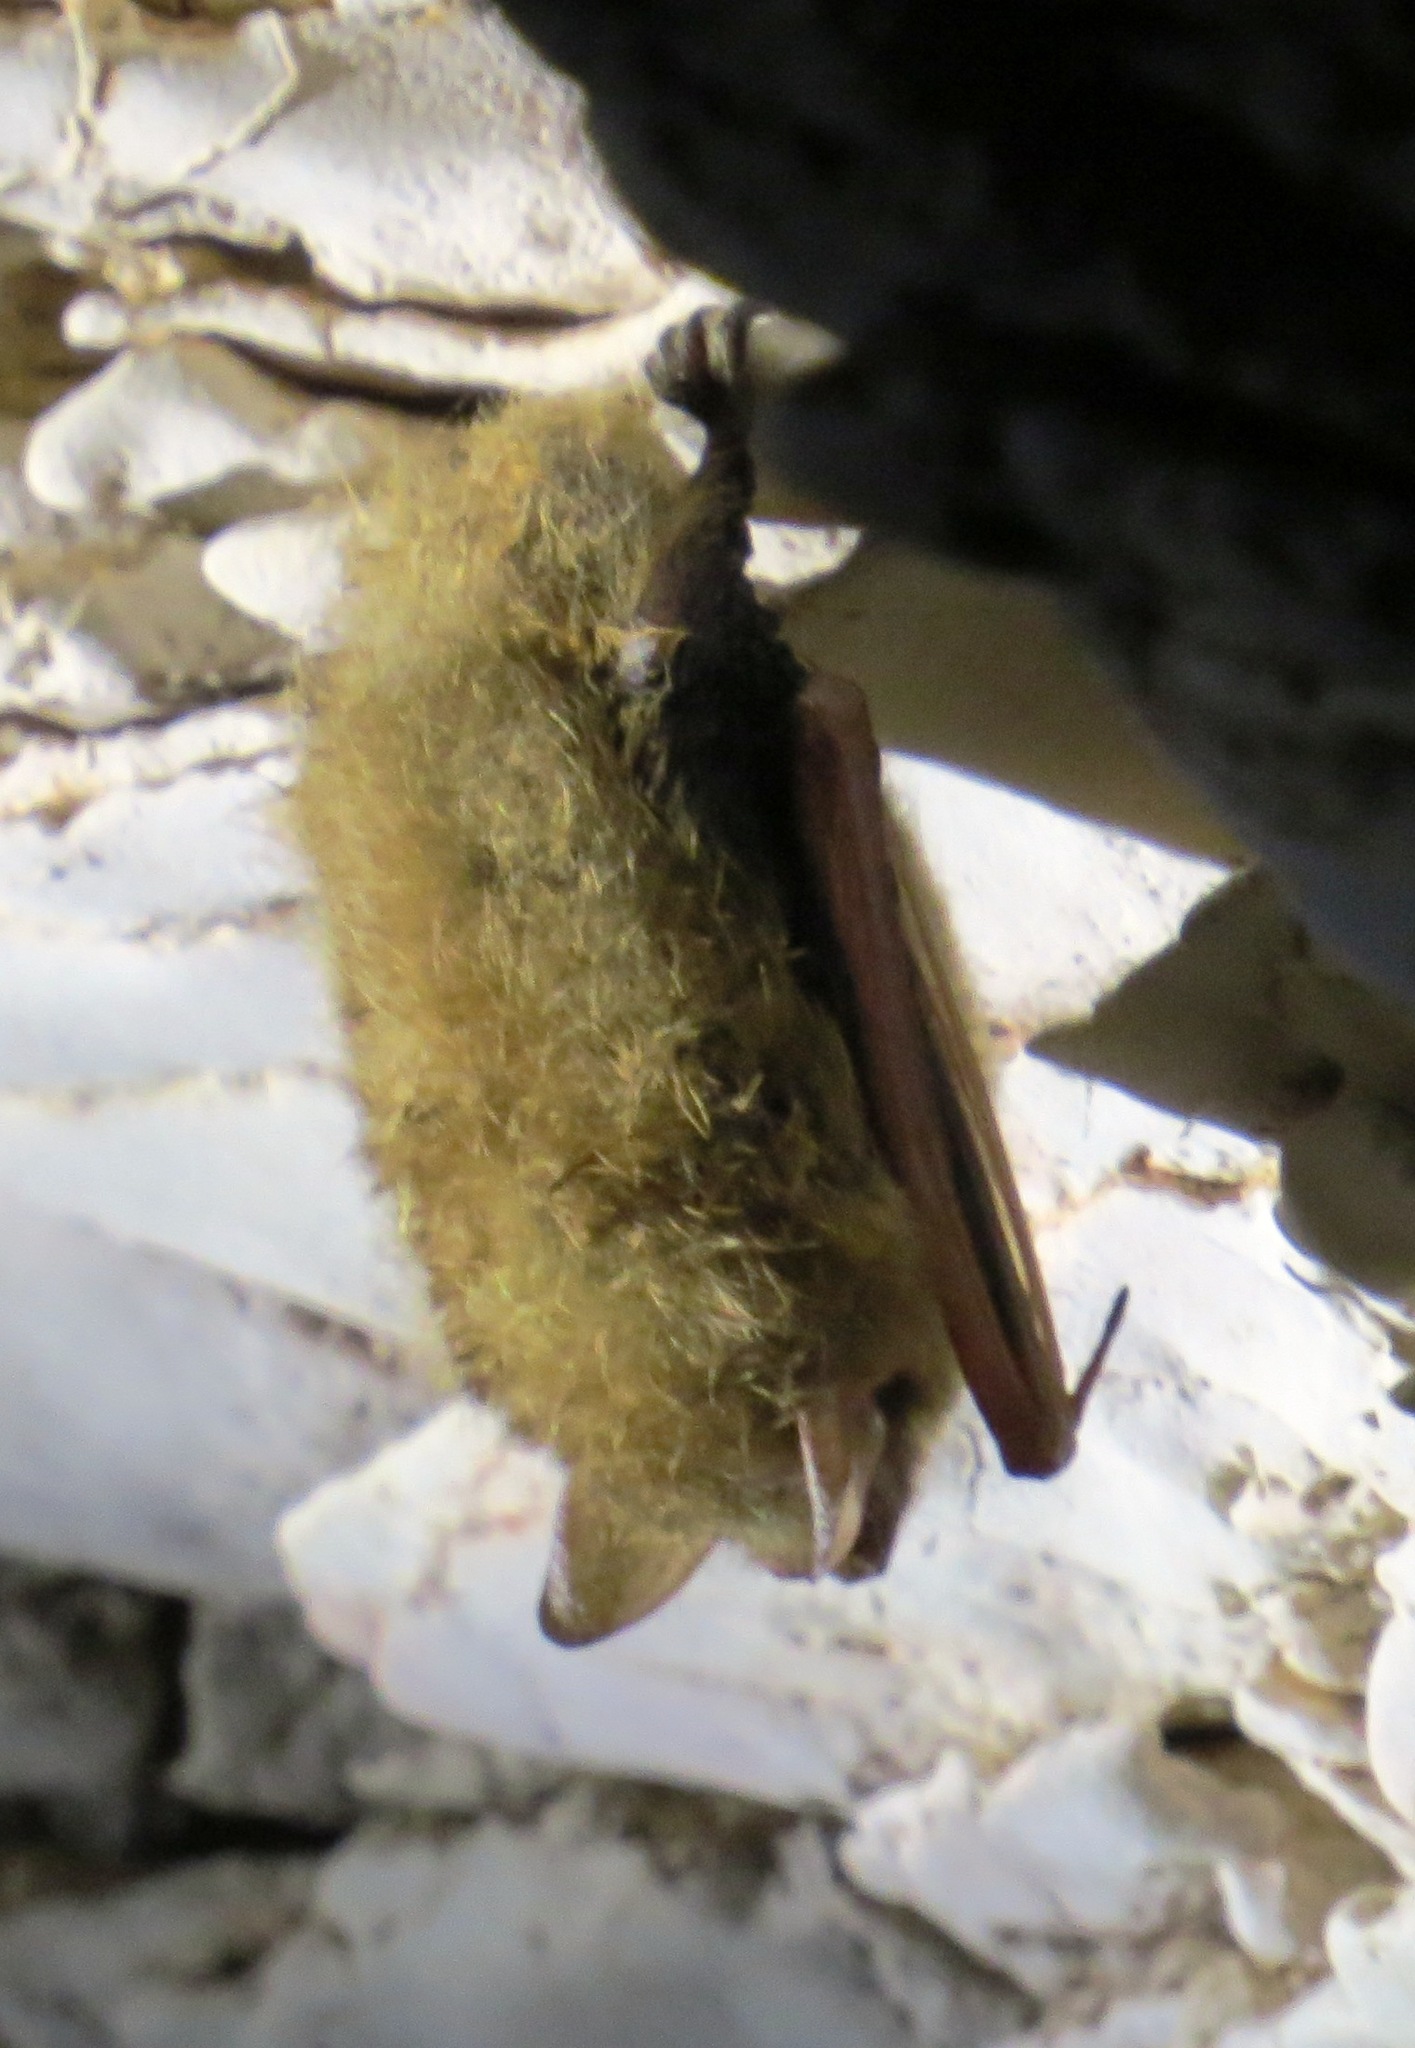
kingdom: Animalia
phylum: Chordata
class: Mammalia
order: Chiroptera
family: Vespertilionidae
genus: Perimyotis
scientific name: Perimyotis subflavus
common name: Eastern pipistrelle
